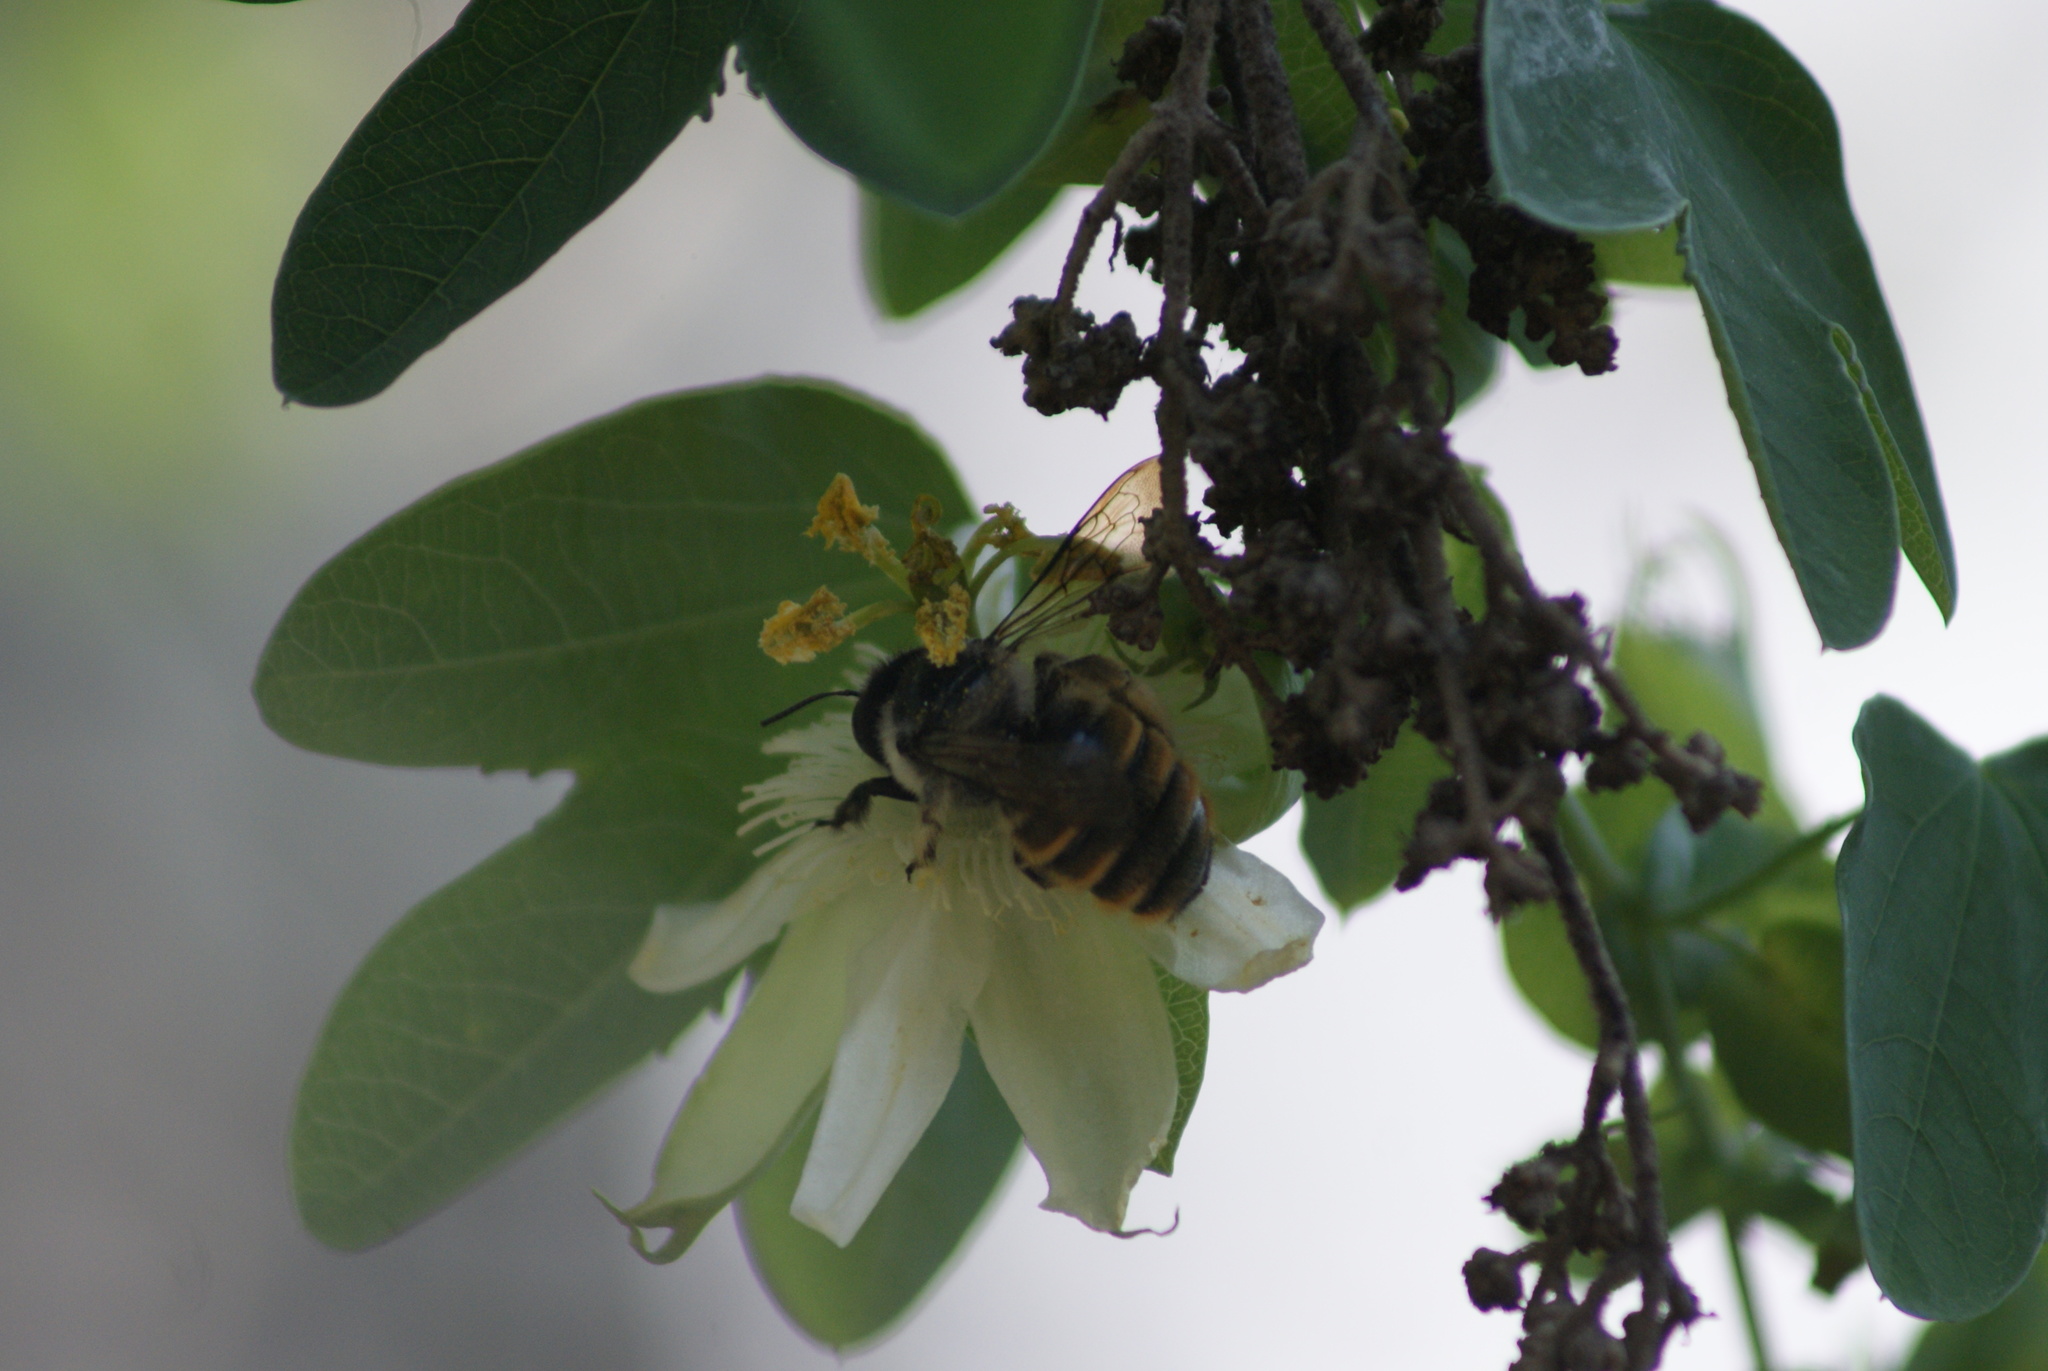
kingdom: Plantae
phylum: Tracheophyta
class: Magnoliopsida
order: Malpighiales
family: Passifloraceae
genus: Passiflora
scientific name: Passiflora subpeltata
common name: White passionflower
